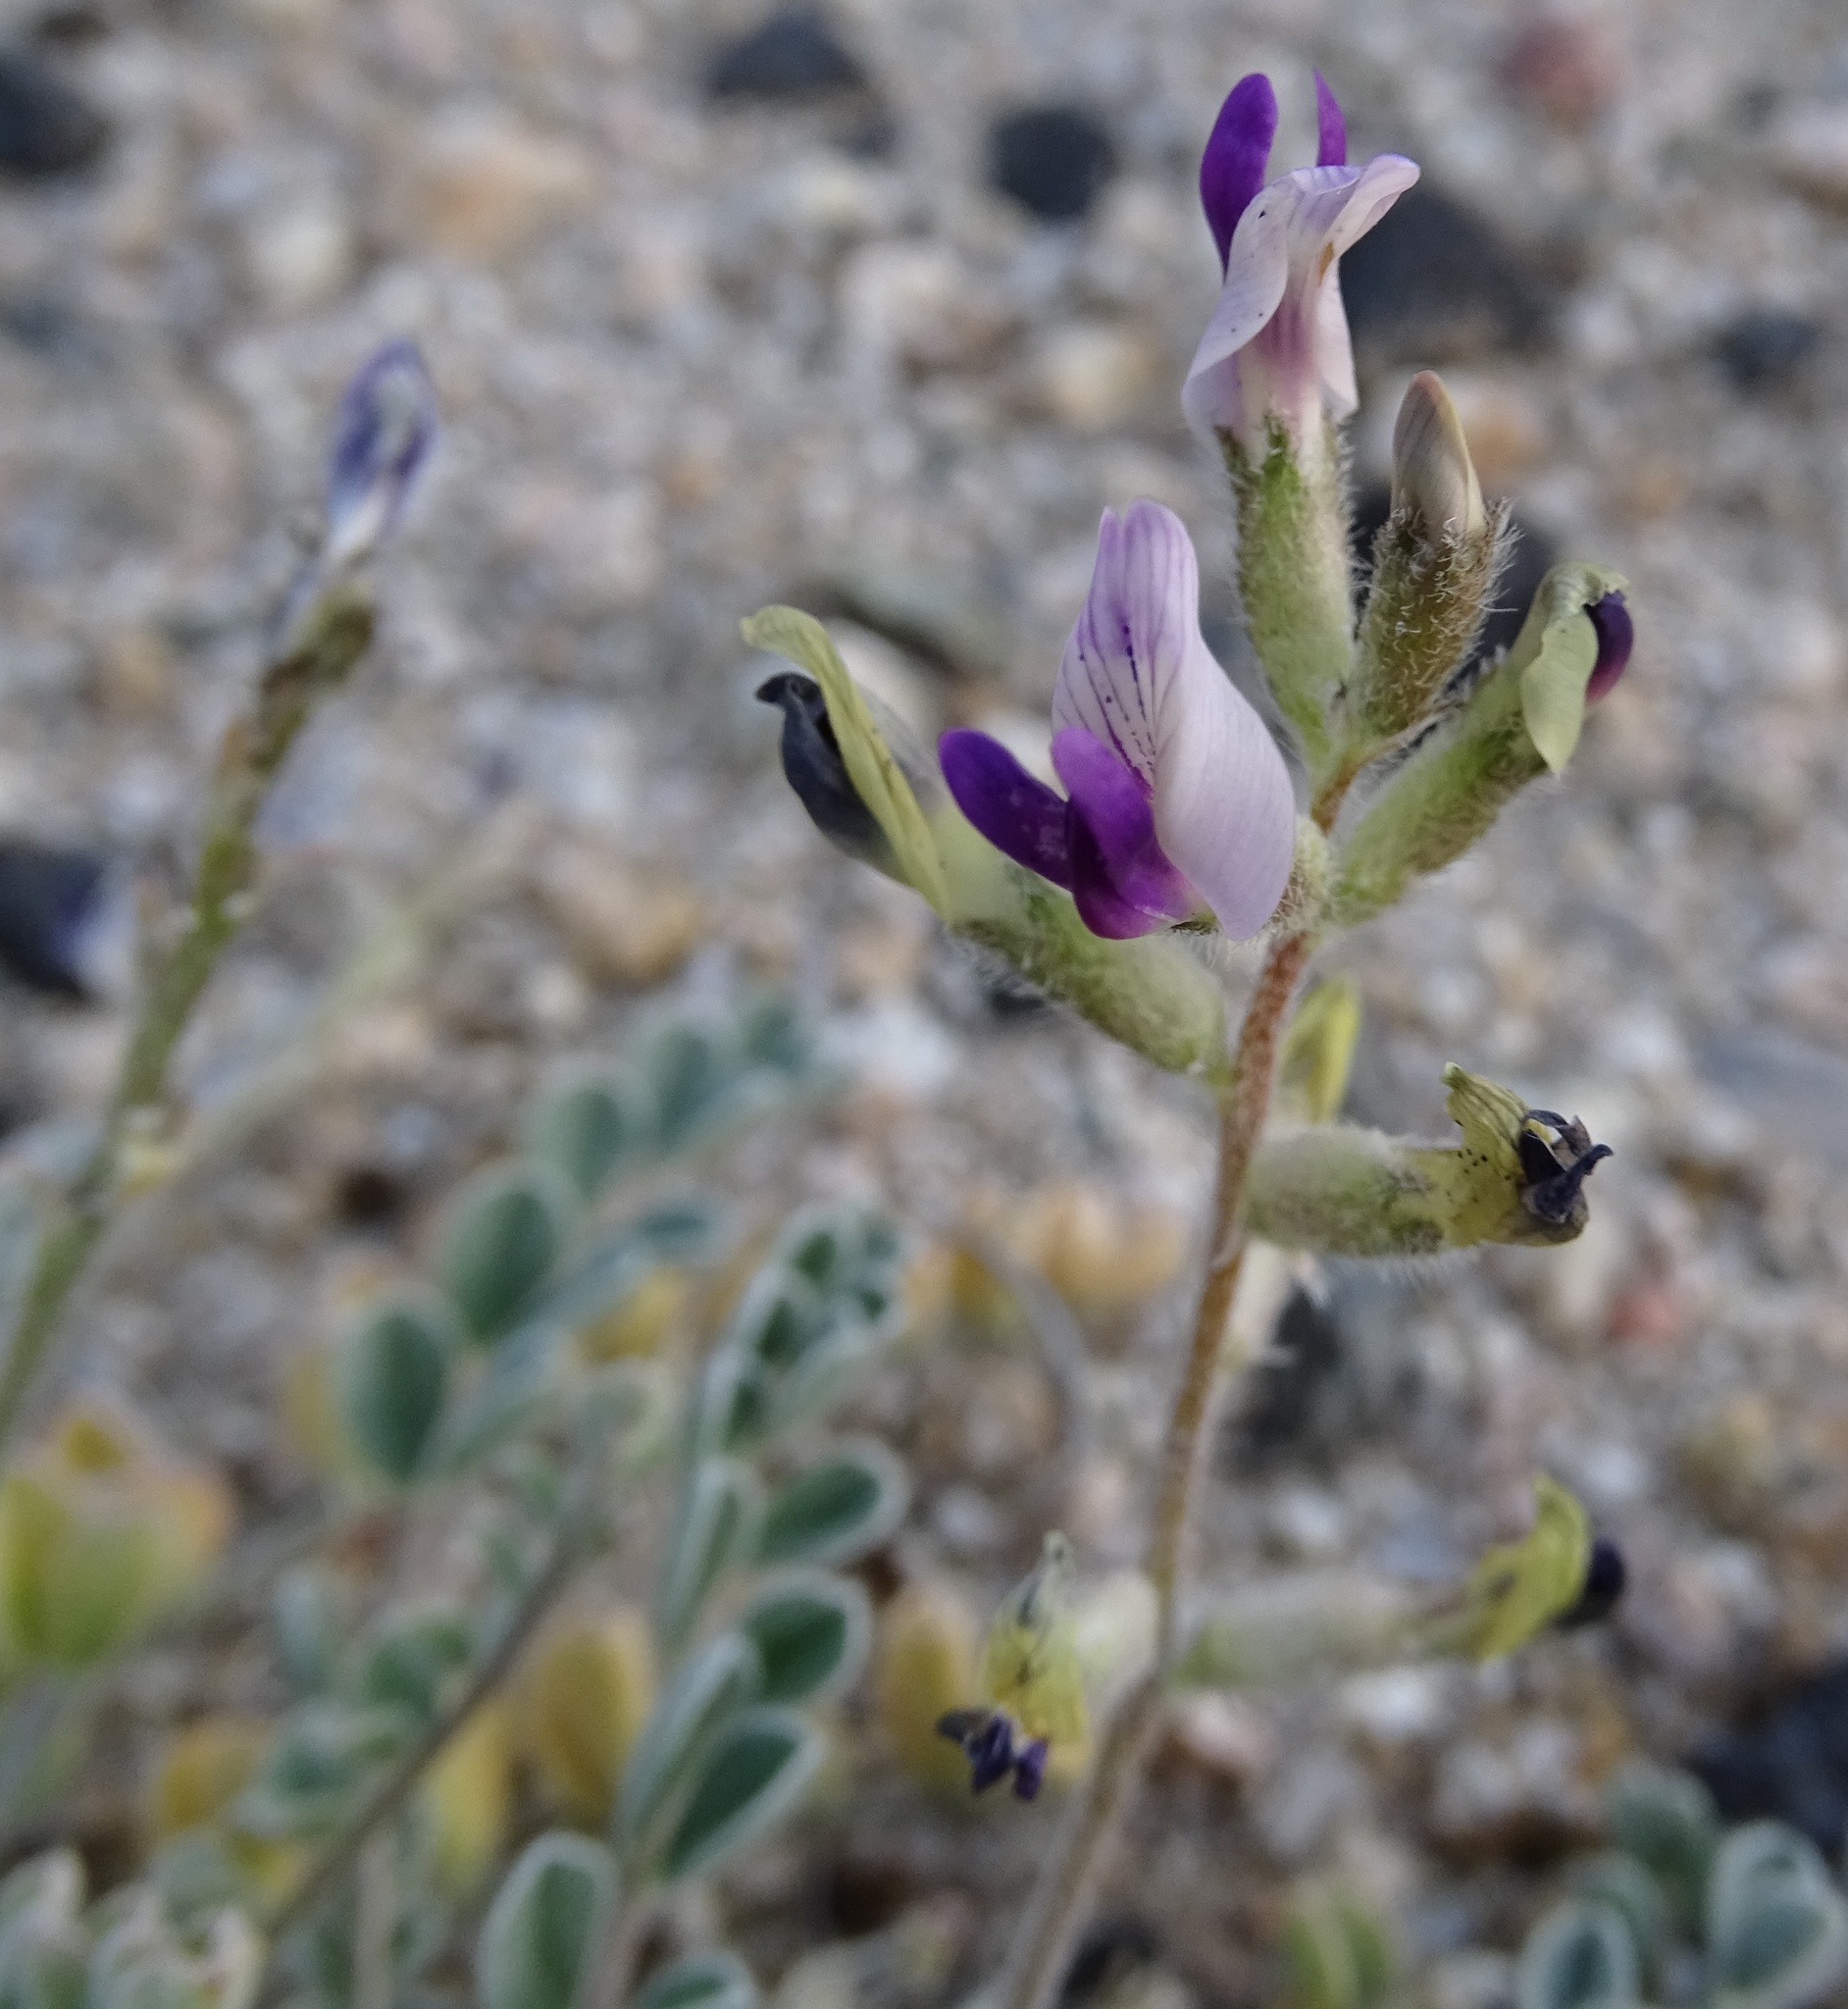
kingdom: Plantae
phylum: Tracheophyta
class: Magnoliopsida
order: Fabales
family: Fabaceae
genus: Astragalus
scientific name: Astragalus layneae
